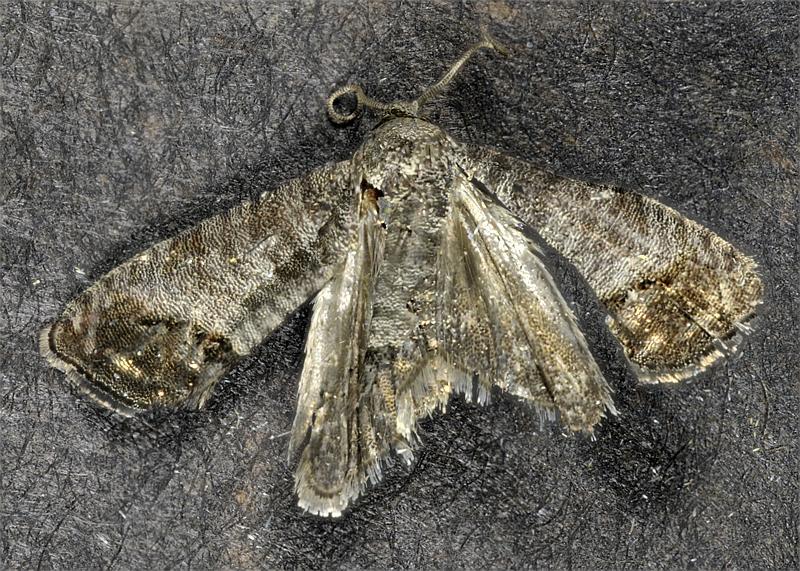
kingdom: Animalia
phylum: Arthropoda
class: Insecta
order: Lepidoptera
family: Tortricidae
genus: Cydia
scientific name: Cydia pomonella
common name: Codling moth
